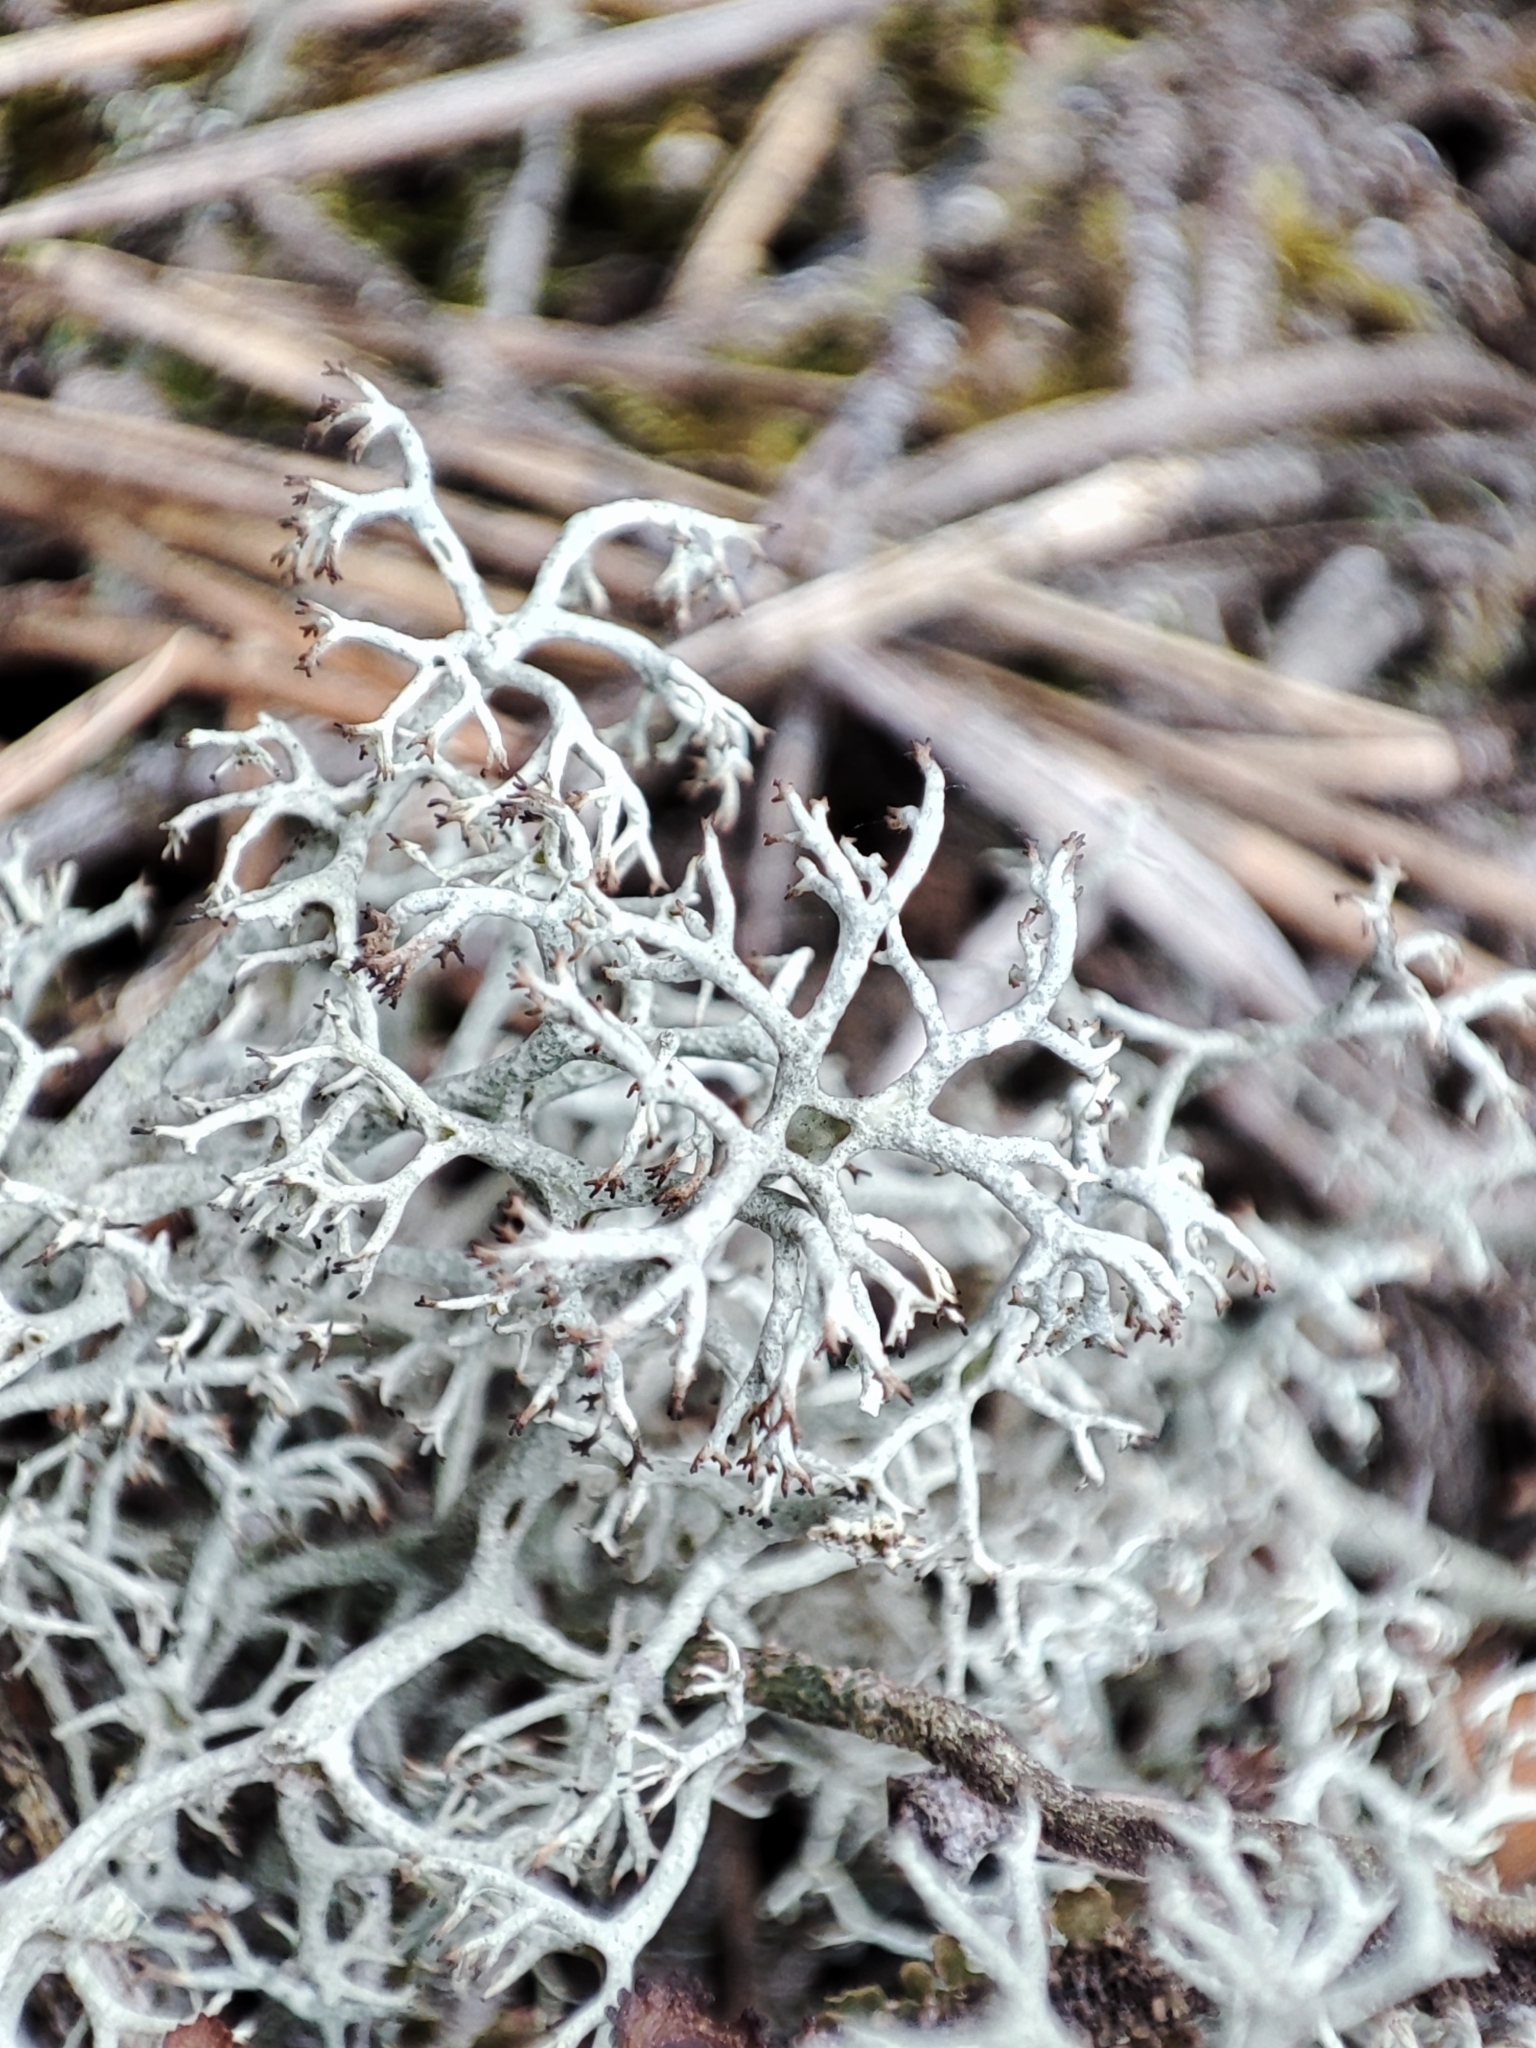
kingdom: Fungi
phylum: Ascomycota
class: Lecanoromycetes
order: Lecanorales
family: Cladoniaceae
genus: Cladonia
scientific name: Cladonia arbuscula
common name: Reindeer lichen
